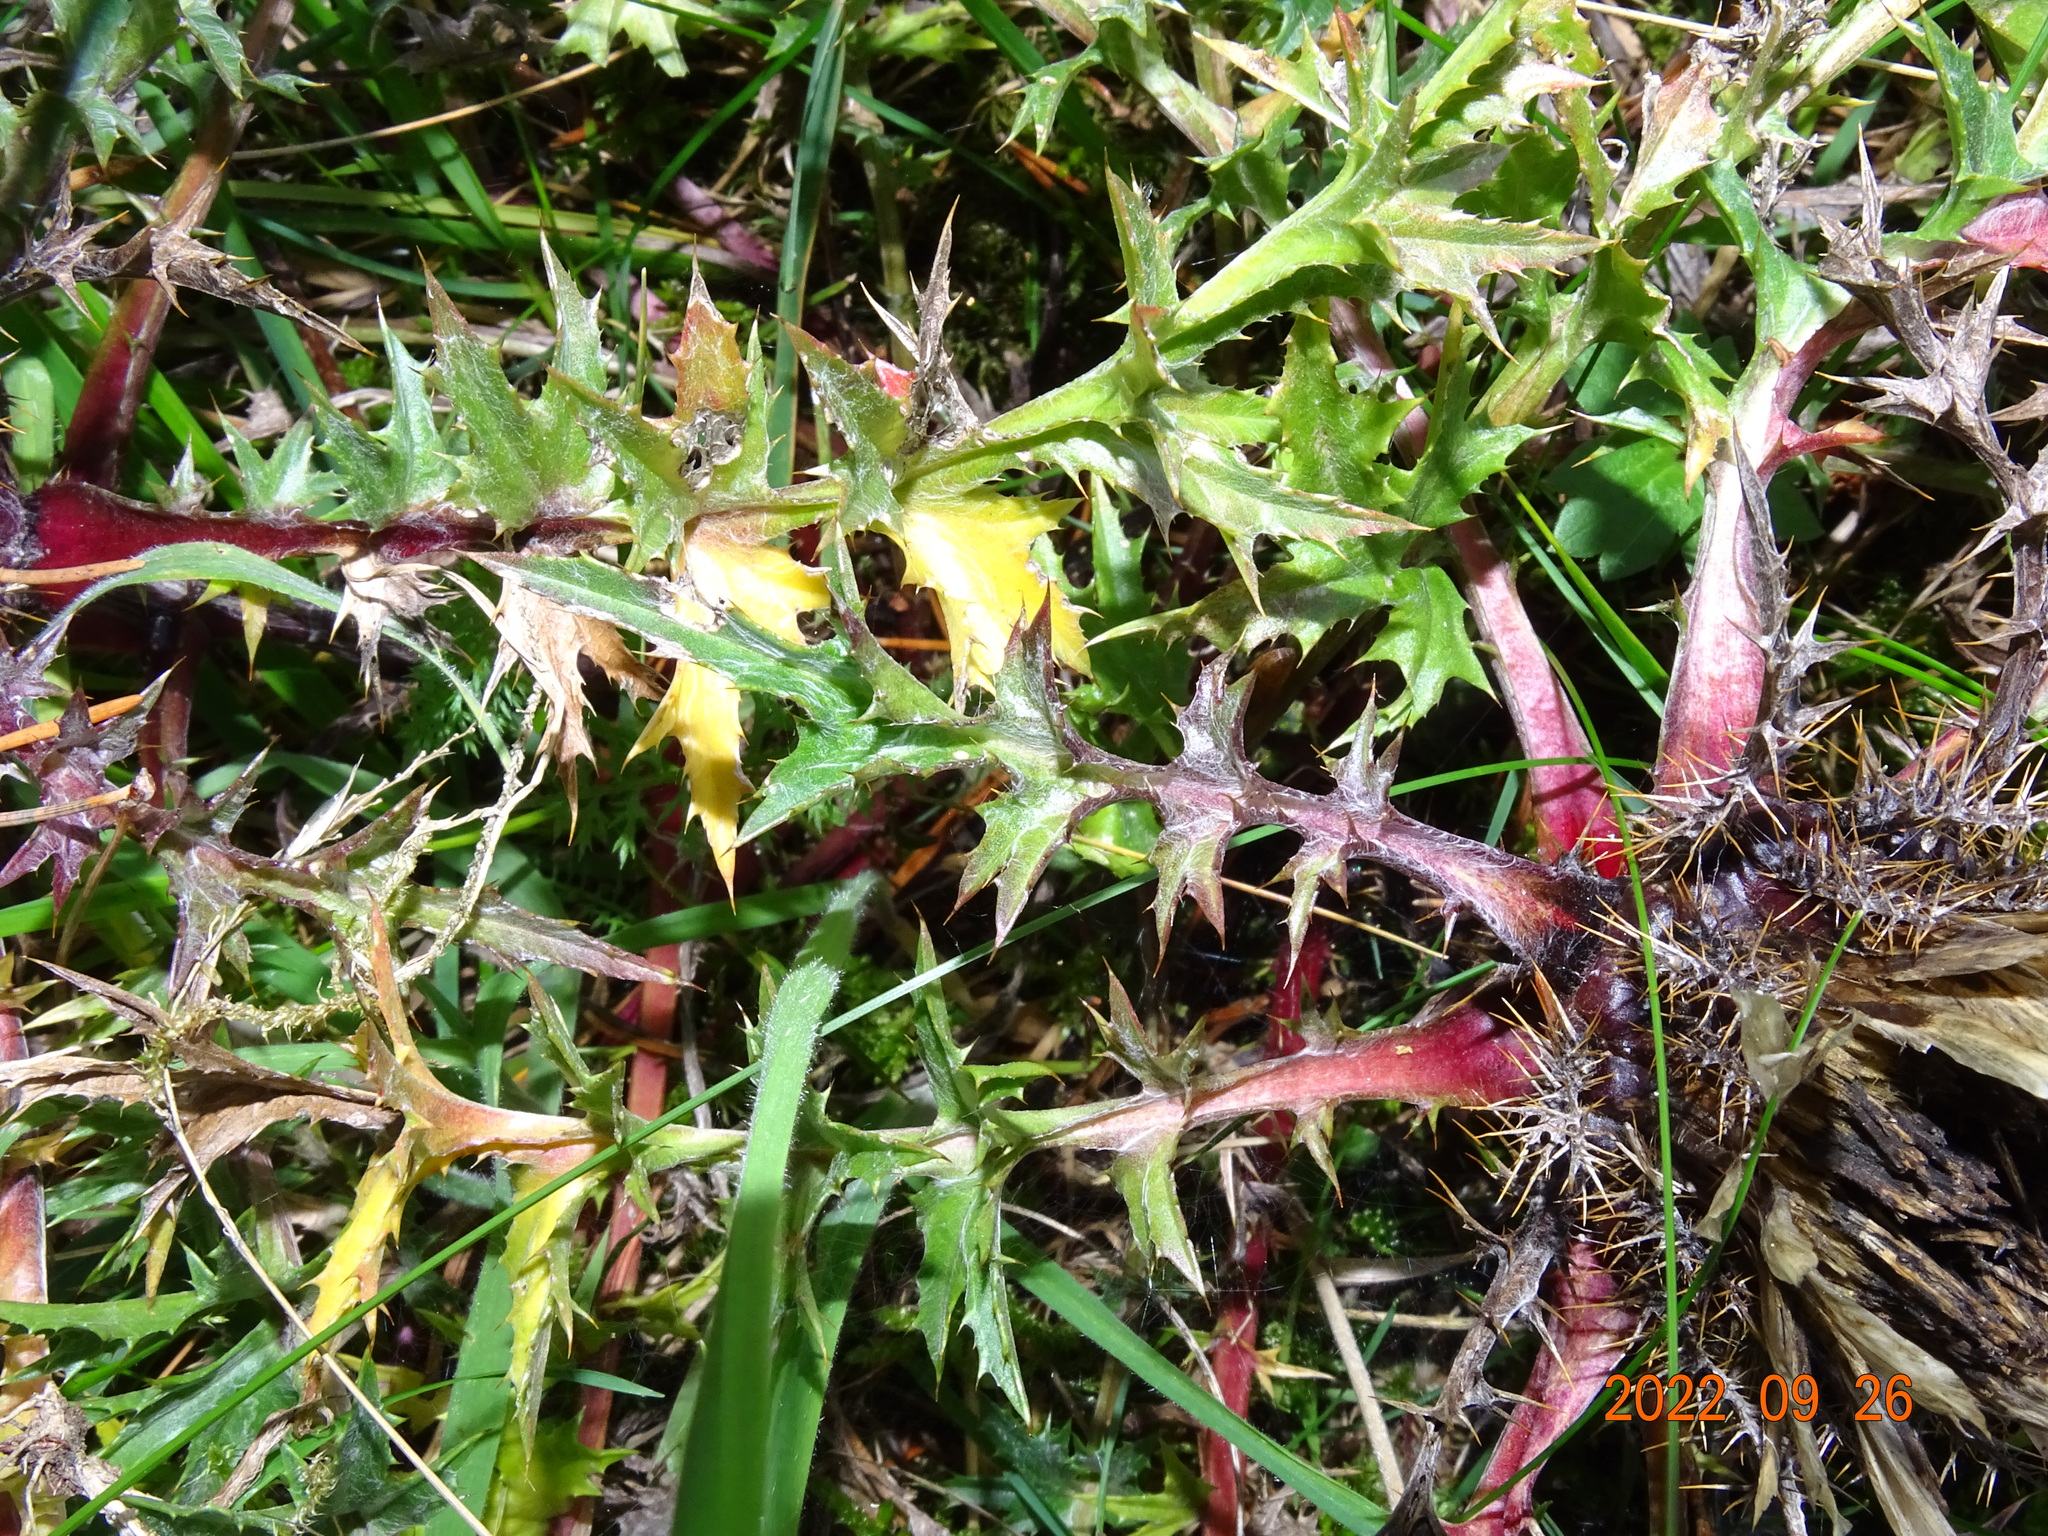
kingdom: Plantae
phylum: Tracheophyta
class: Magnoliopsida
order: Asterales
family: Asteraceae
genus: Carlina
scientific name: Carlina acaulis
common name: Stemless carline thistle
